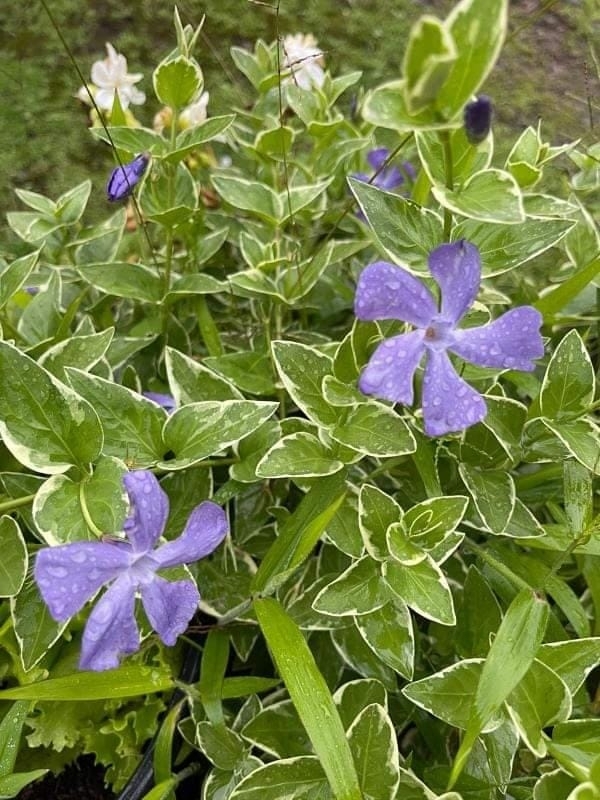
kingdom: Plantae
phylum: Tracheophyta
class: Magnoliopsida
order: Gentianales
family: Apocynaceae
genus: Vinca
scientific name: Vinca major
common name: Greater periwinkle
